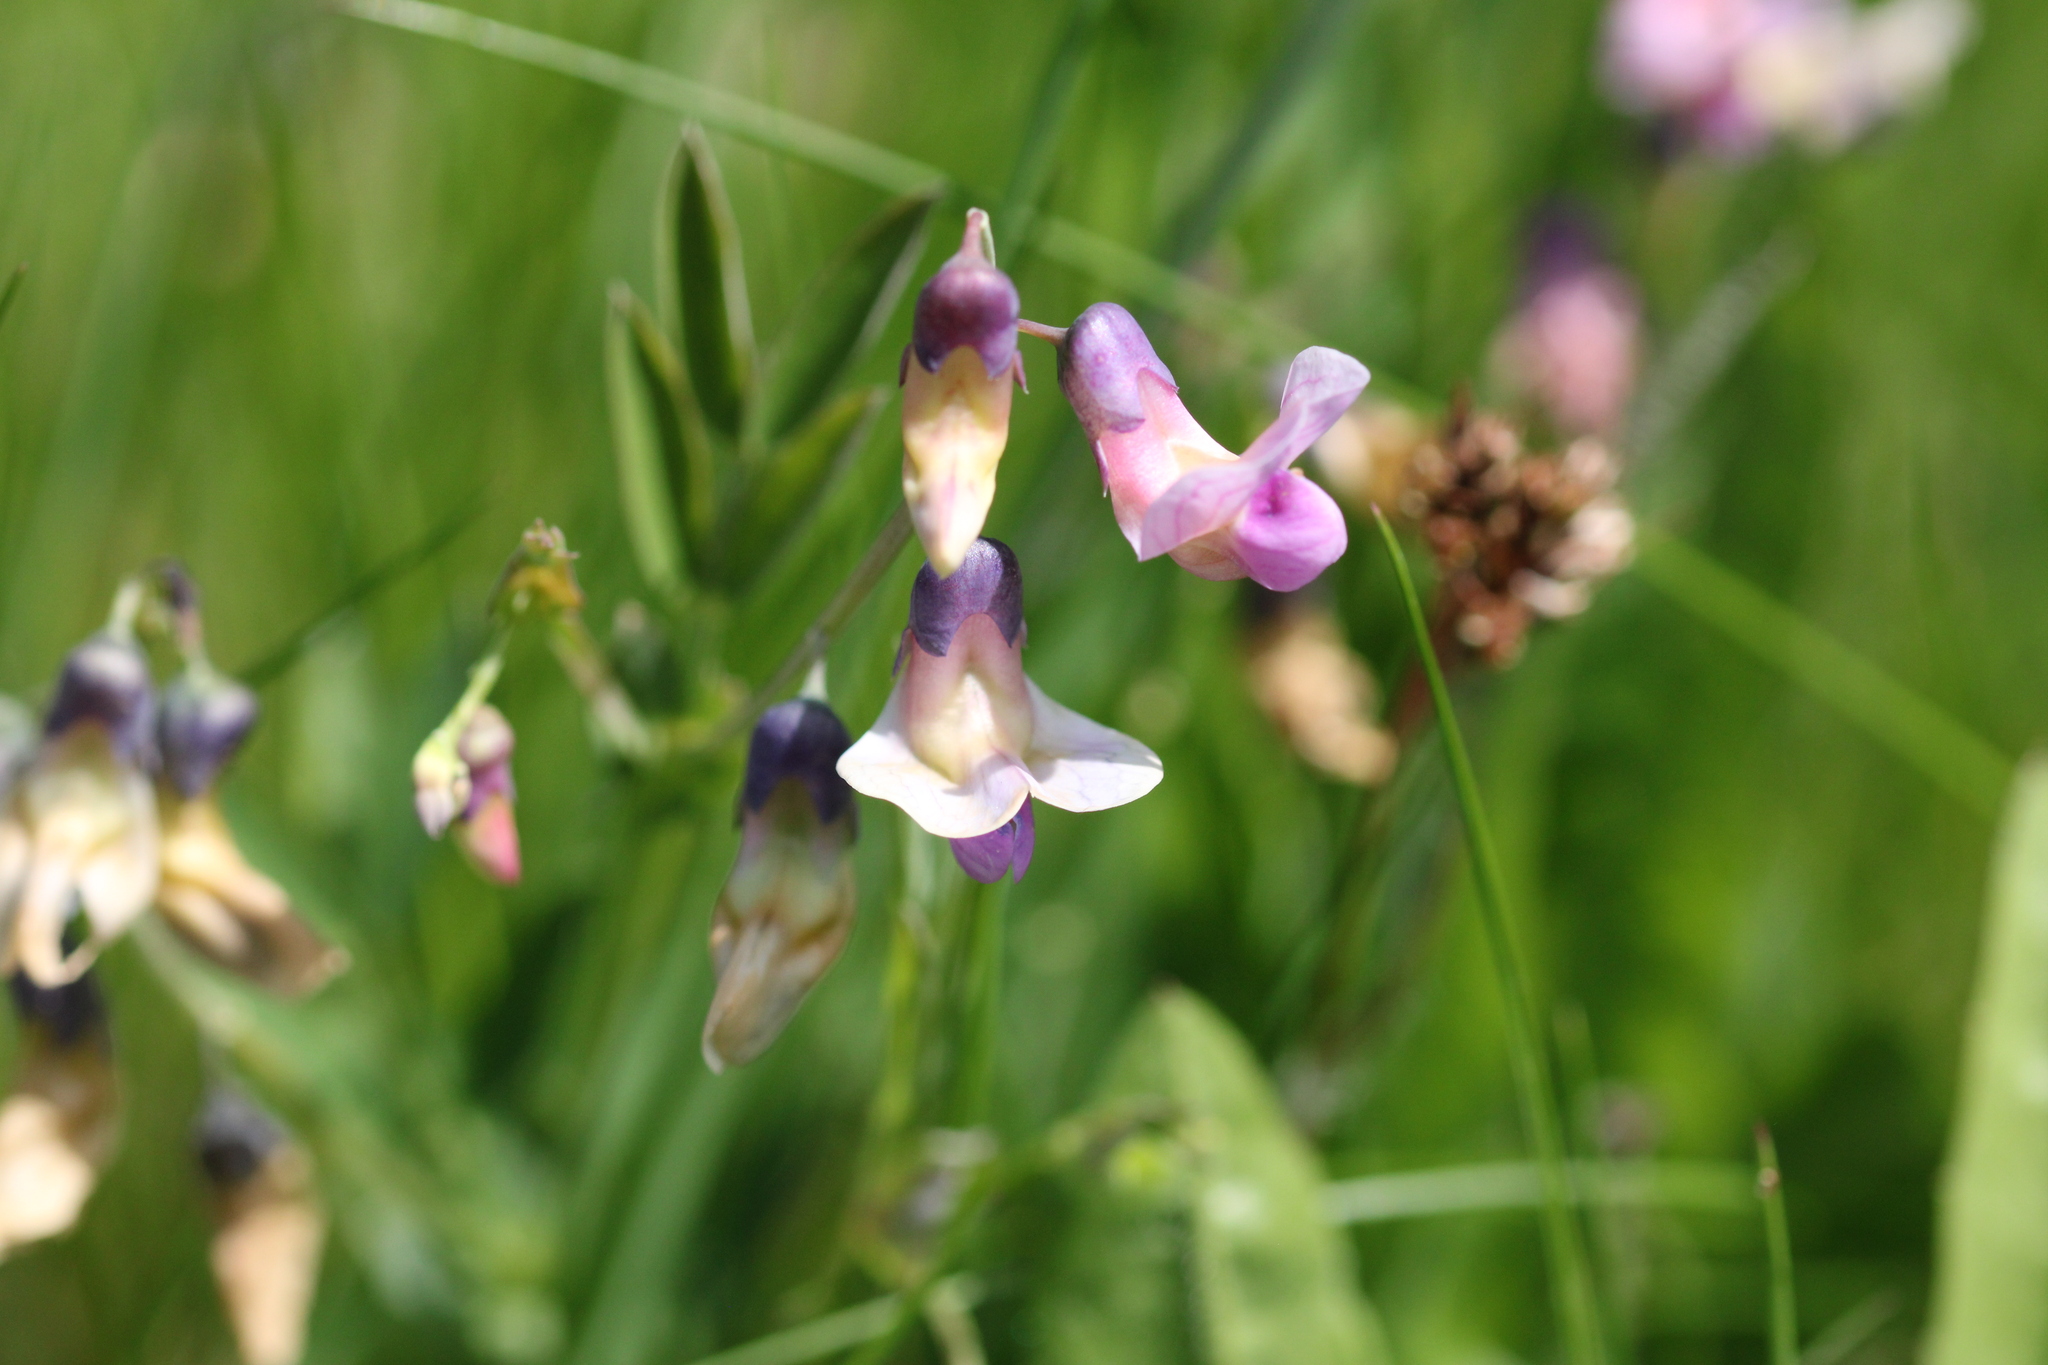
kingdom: Plantae
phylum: Tracheophyta
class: Magnoliopsida
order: Fabales
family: Fabaceae
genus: Lathyrus
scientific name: Lathyrus linifolius
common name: Bitter-vetch
